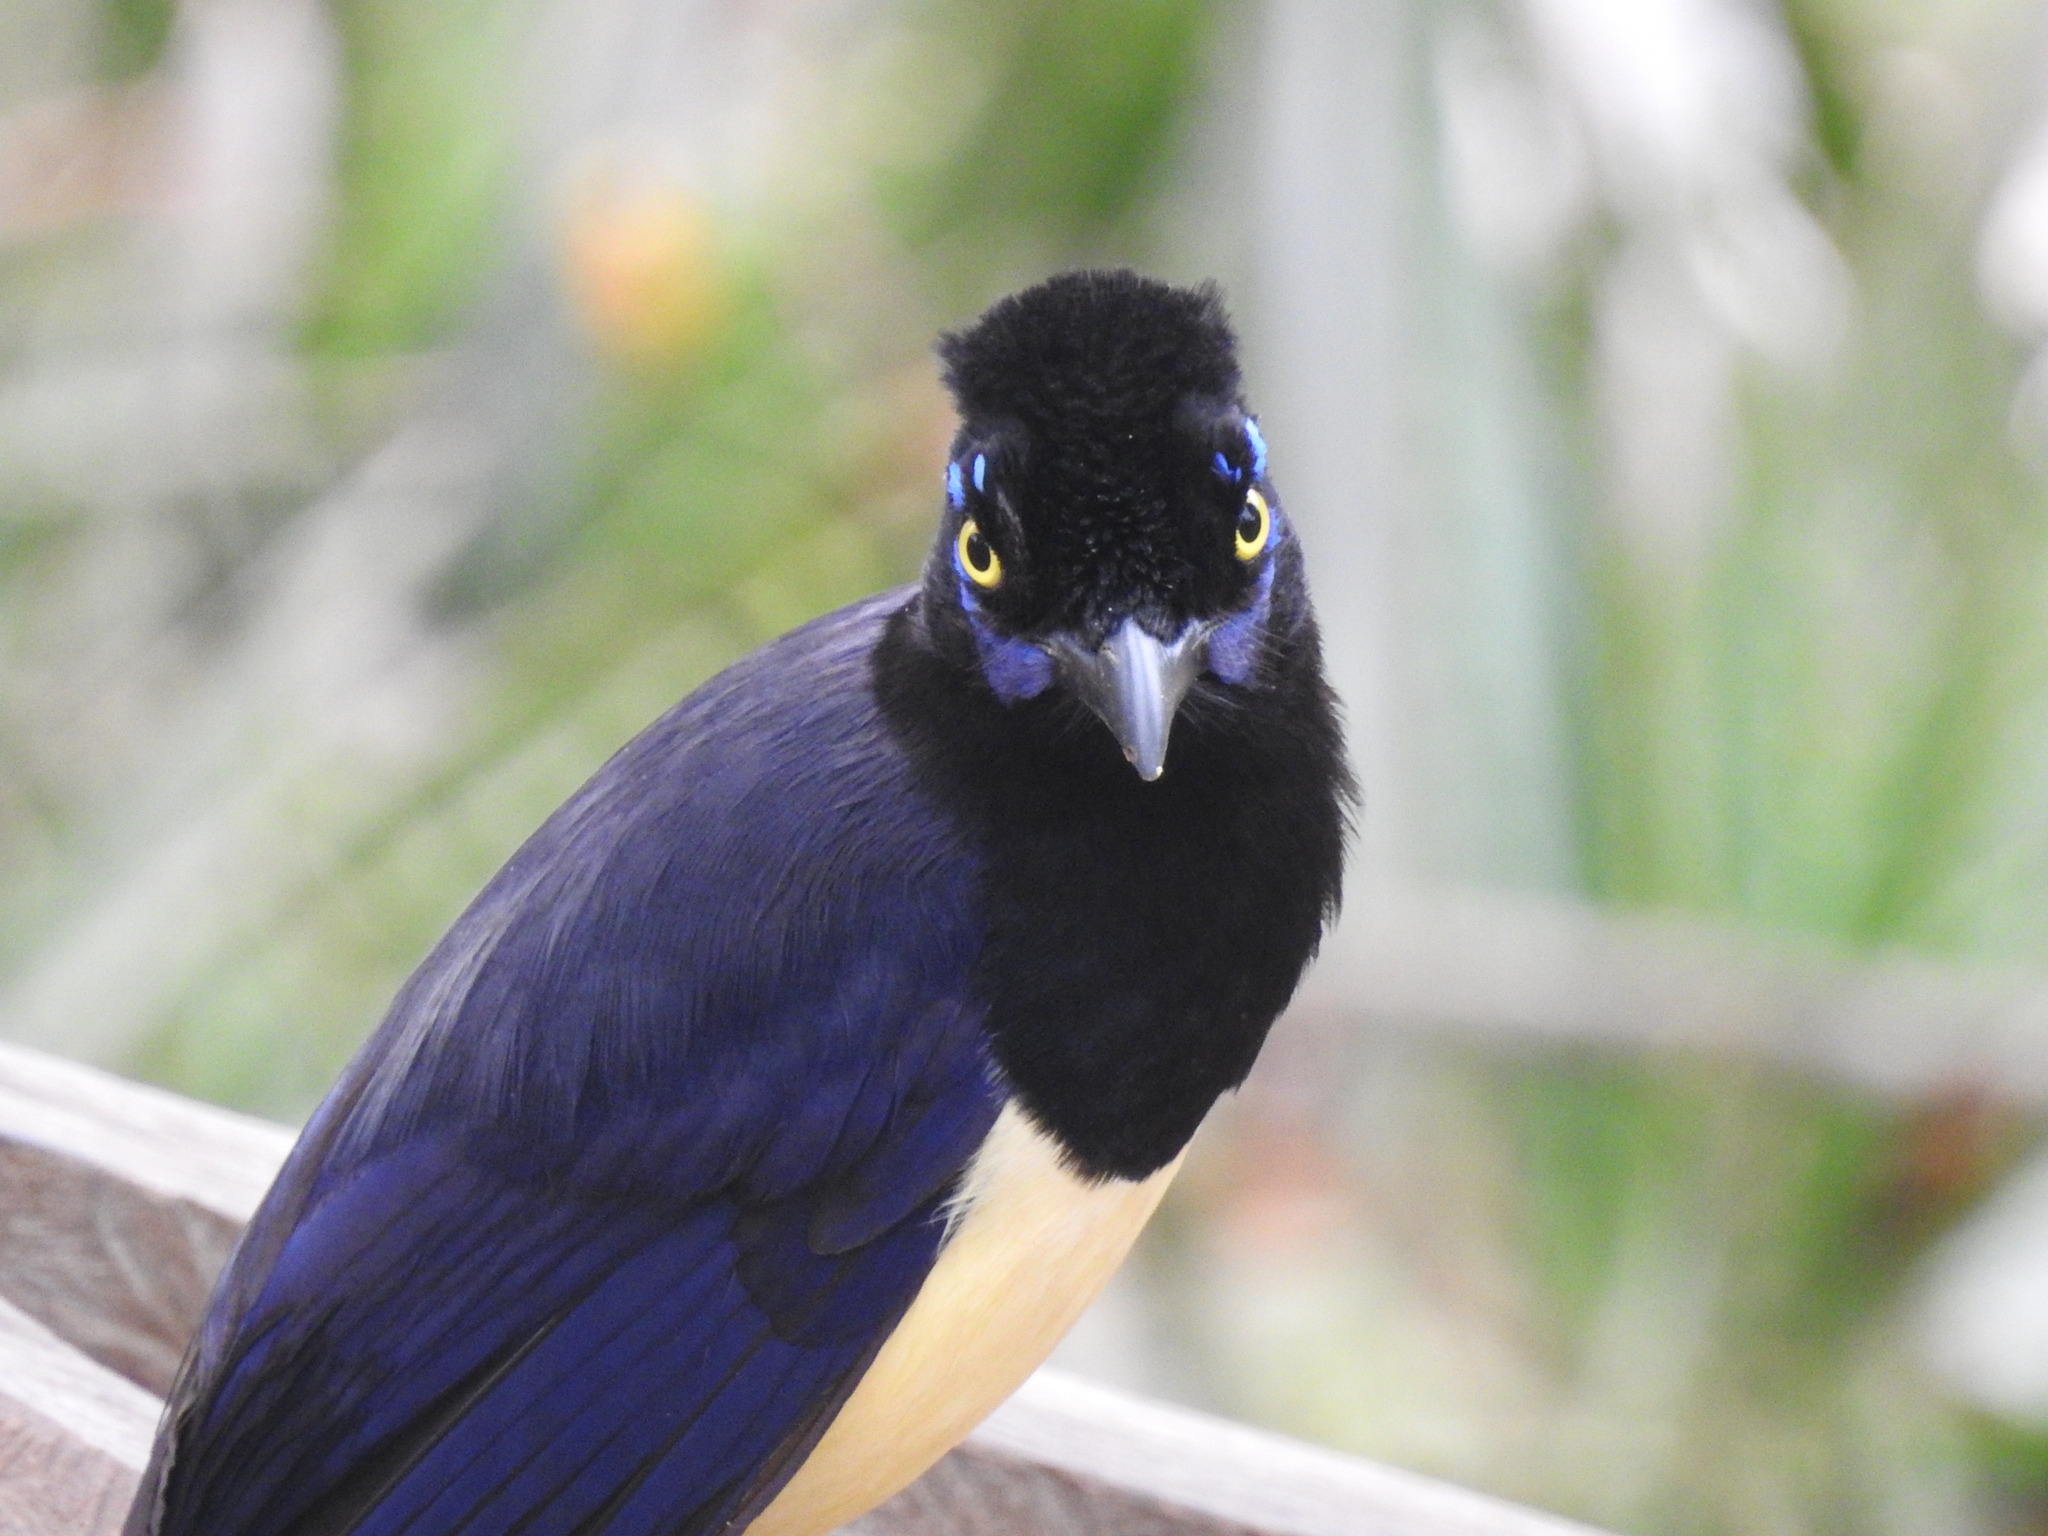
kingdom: Animalia
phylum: Chordata
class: Aves
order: Passeriformes
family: Corvidae
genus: Cyanocorax
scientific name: Cyanocorax chrysops
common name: Plush-crested jay
